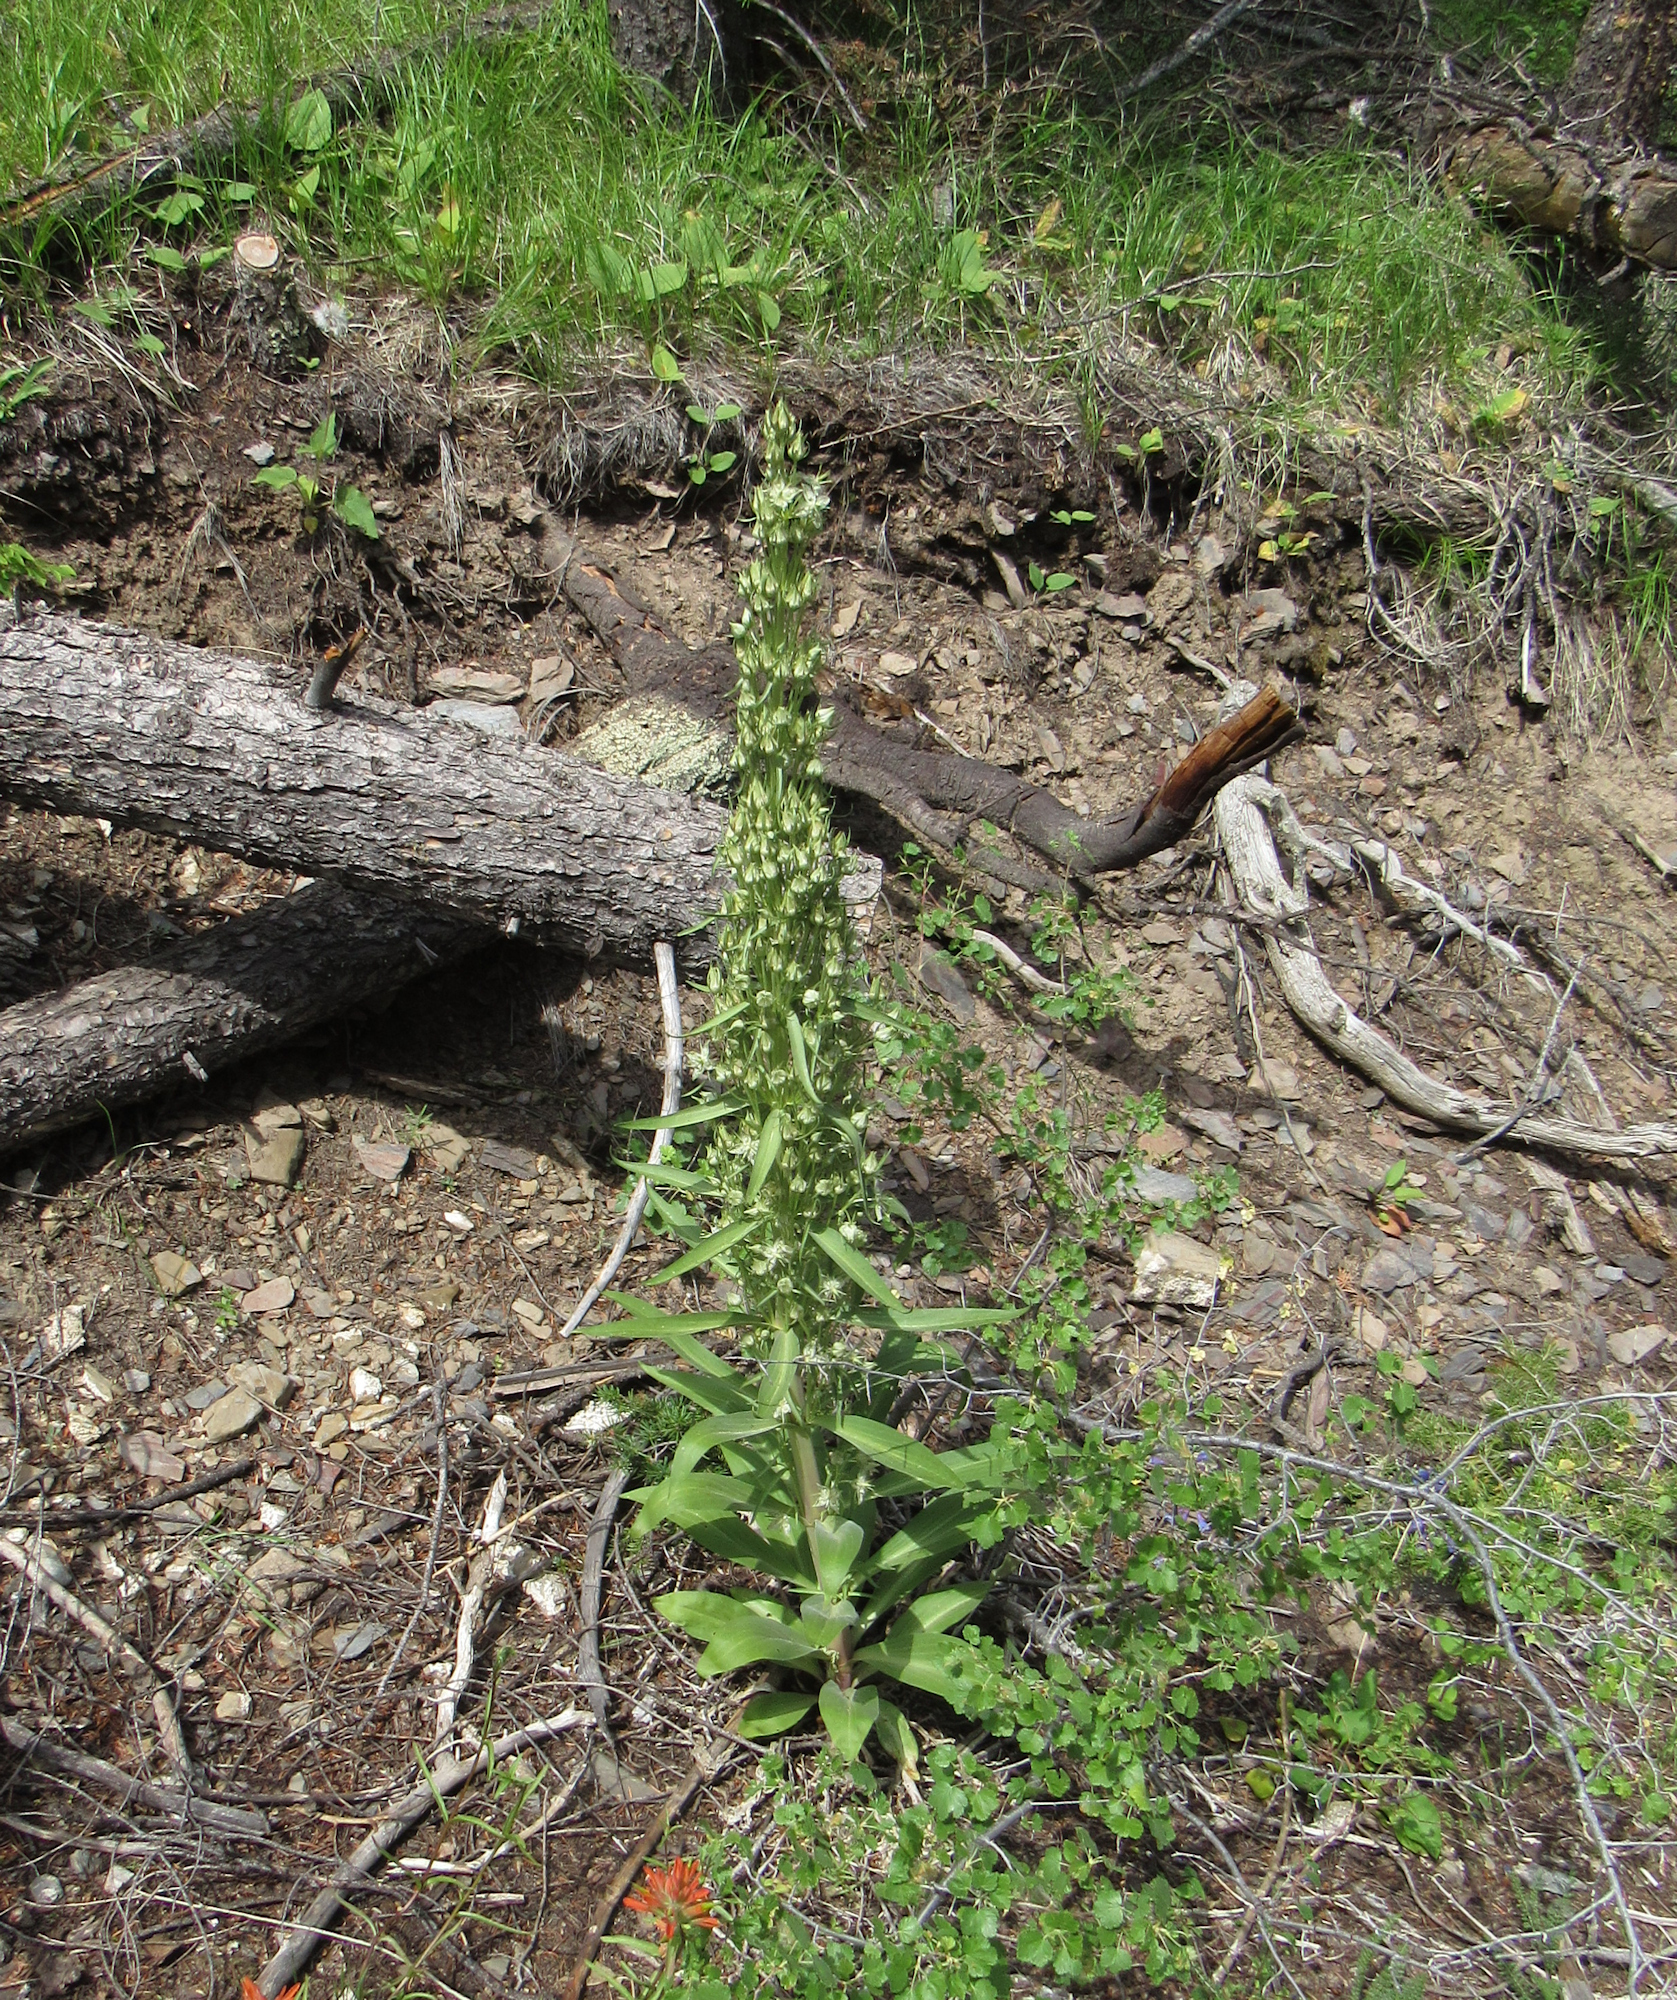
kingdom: Plantae
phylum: Tracheophyta
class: Magnoliopsida
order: Gentianales
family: Gentianaceae
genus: Frasera
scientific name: Frasera speciosa
